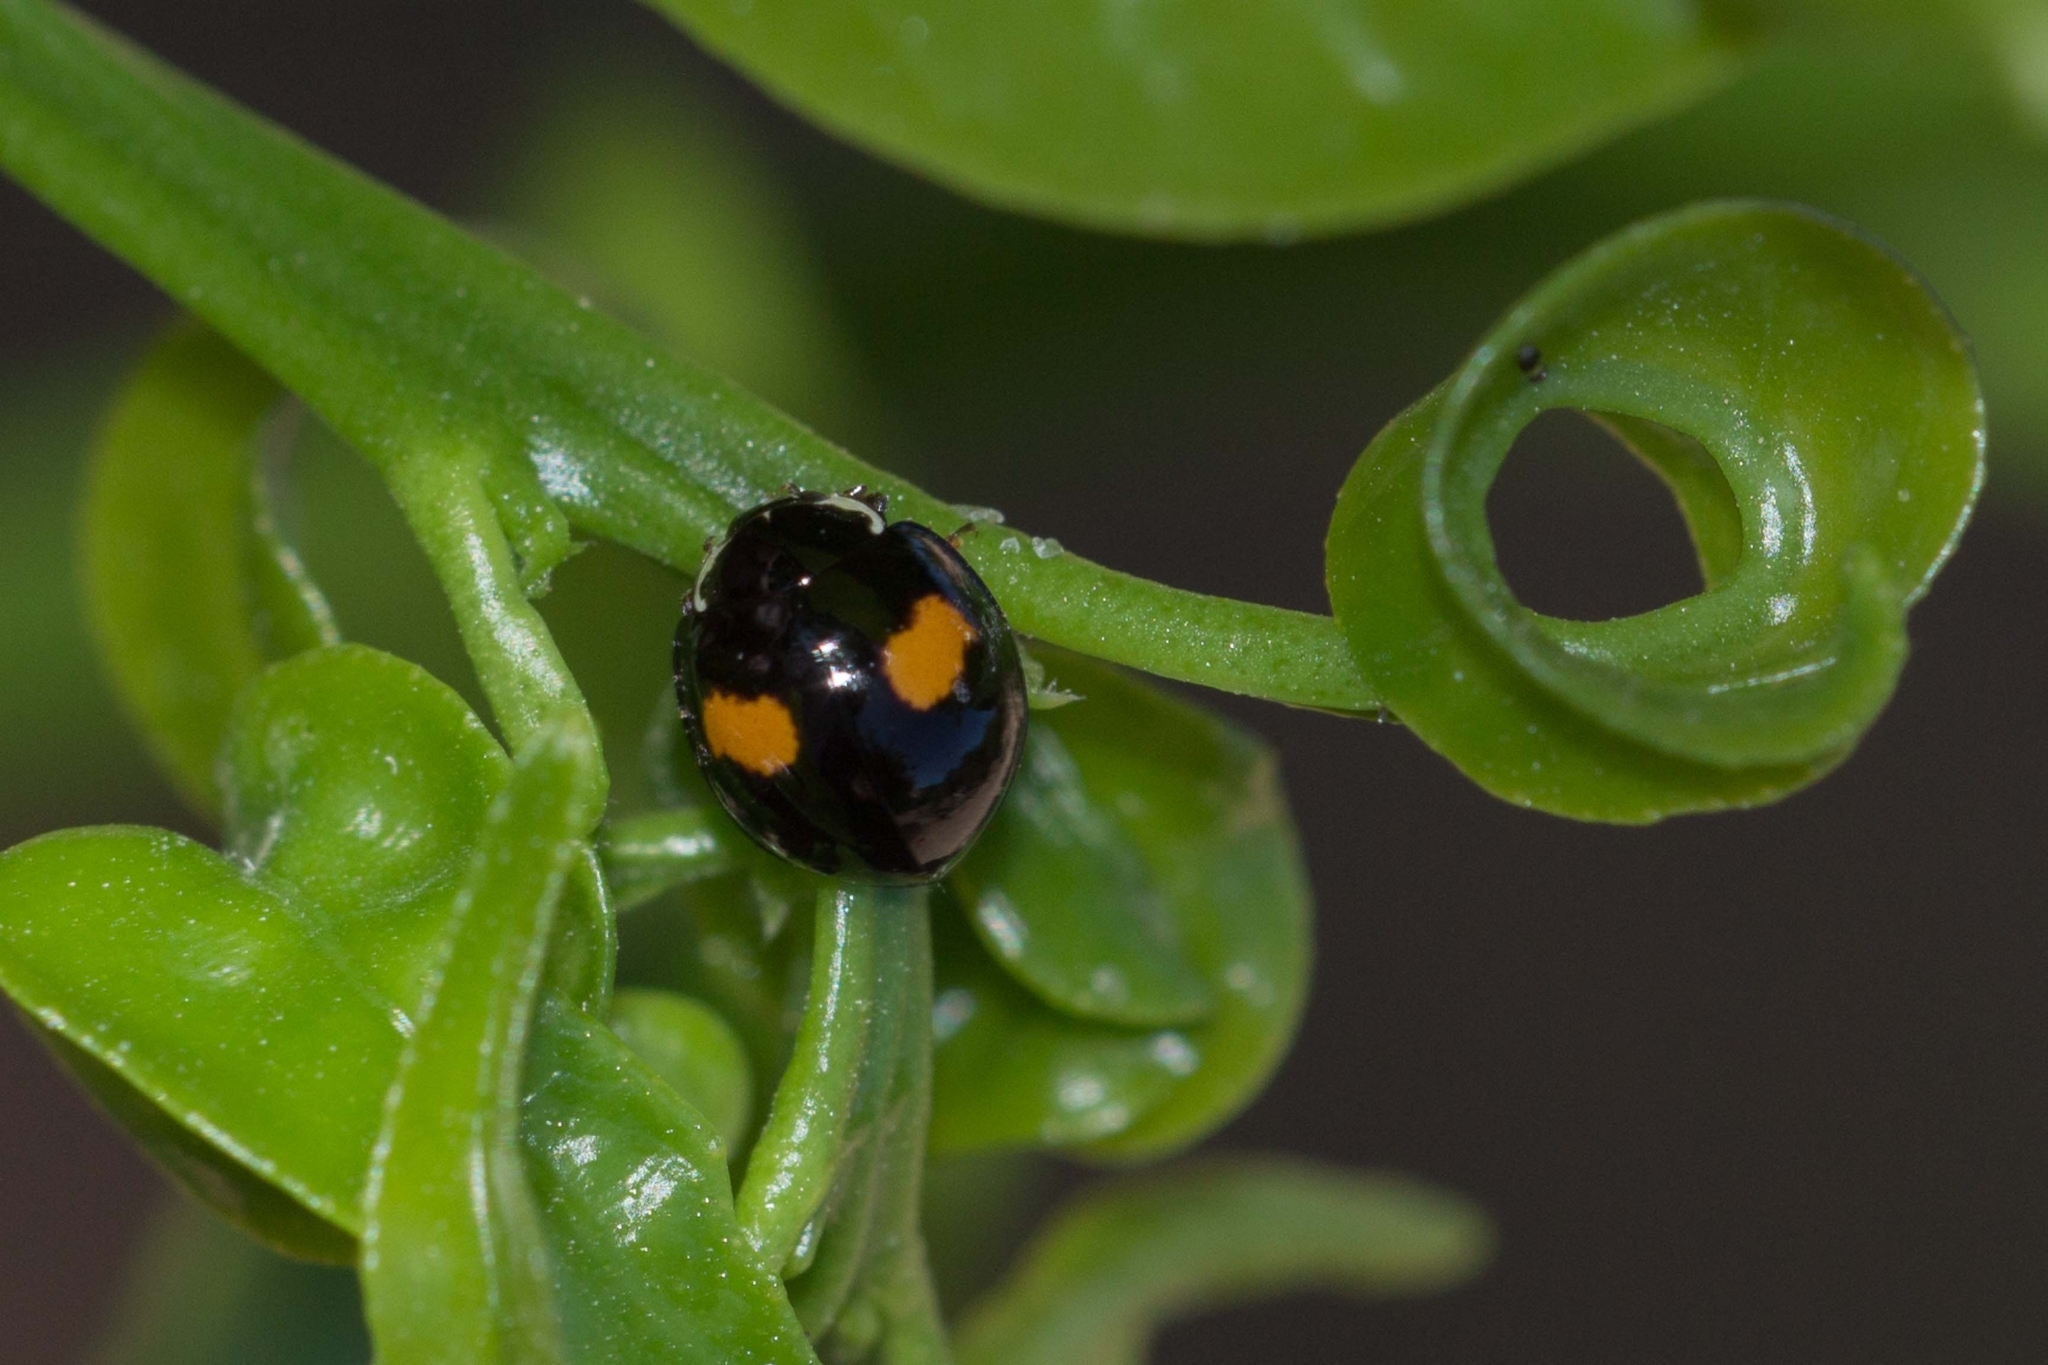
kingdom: Animalia
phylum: Arthropoda
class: Insecta
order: Coleoptera
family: Coccinellidae
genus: Olla
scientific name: Olla v-nigrum
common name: Ashy gray lady beetle
